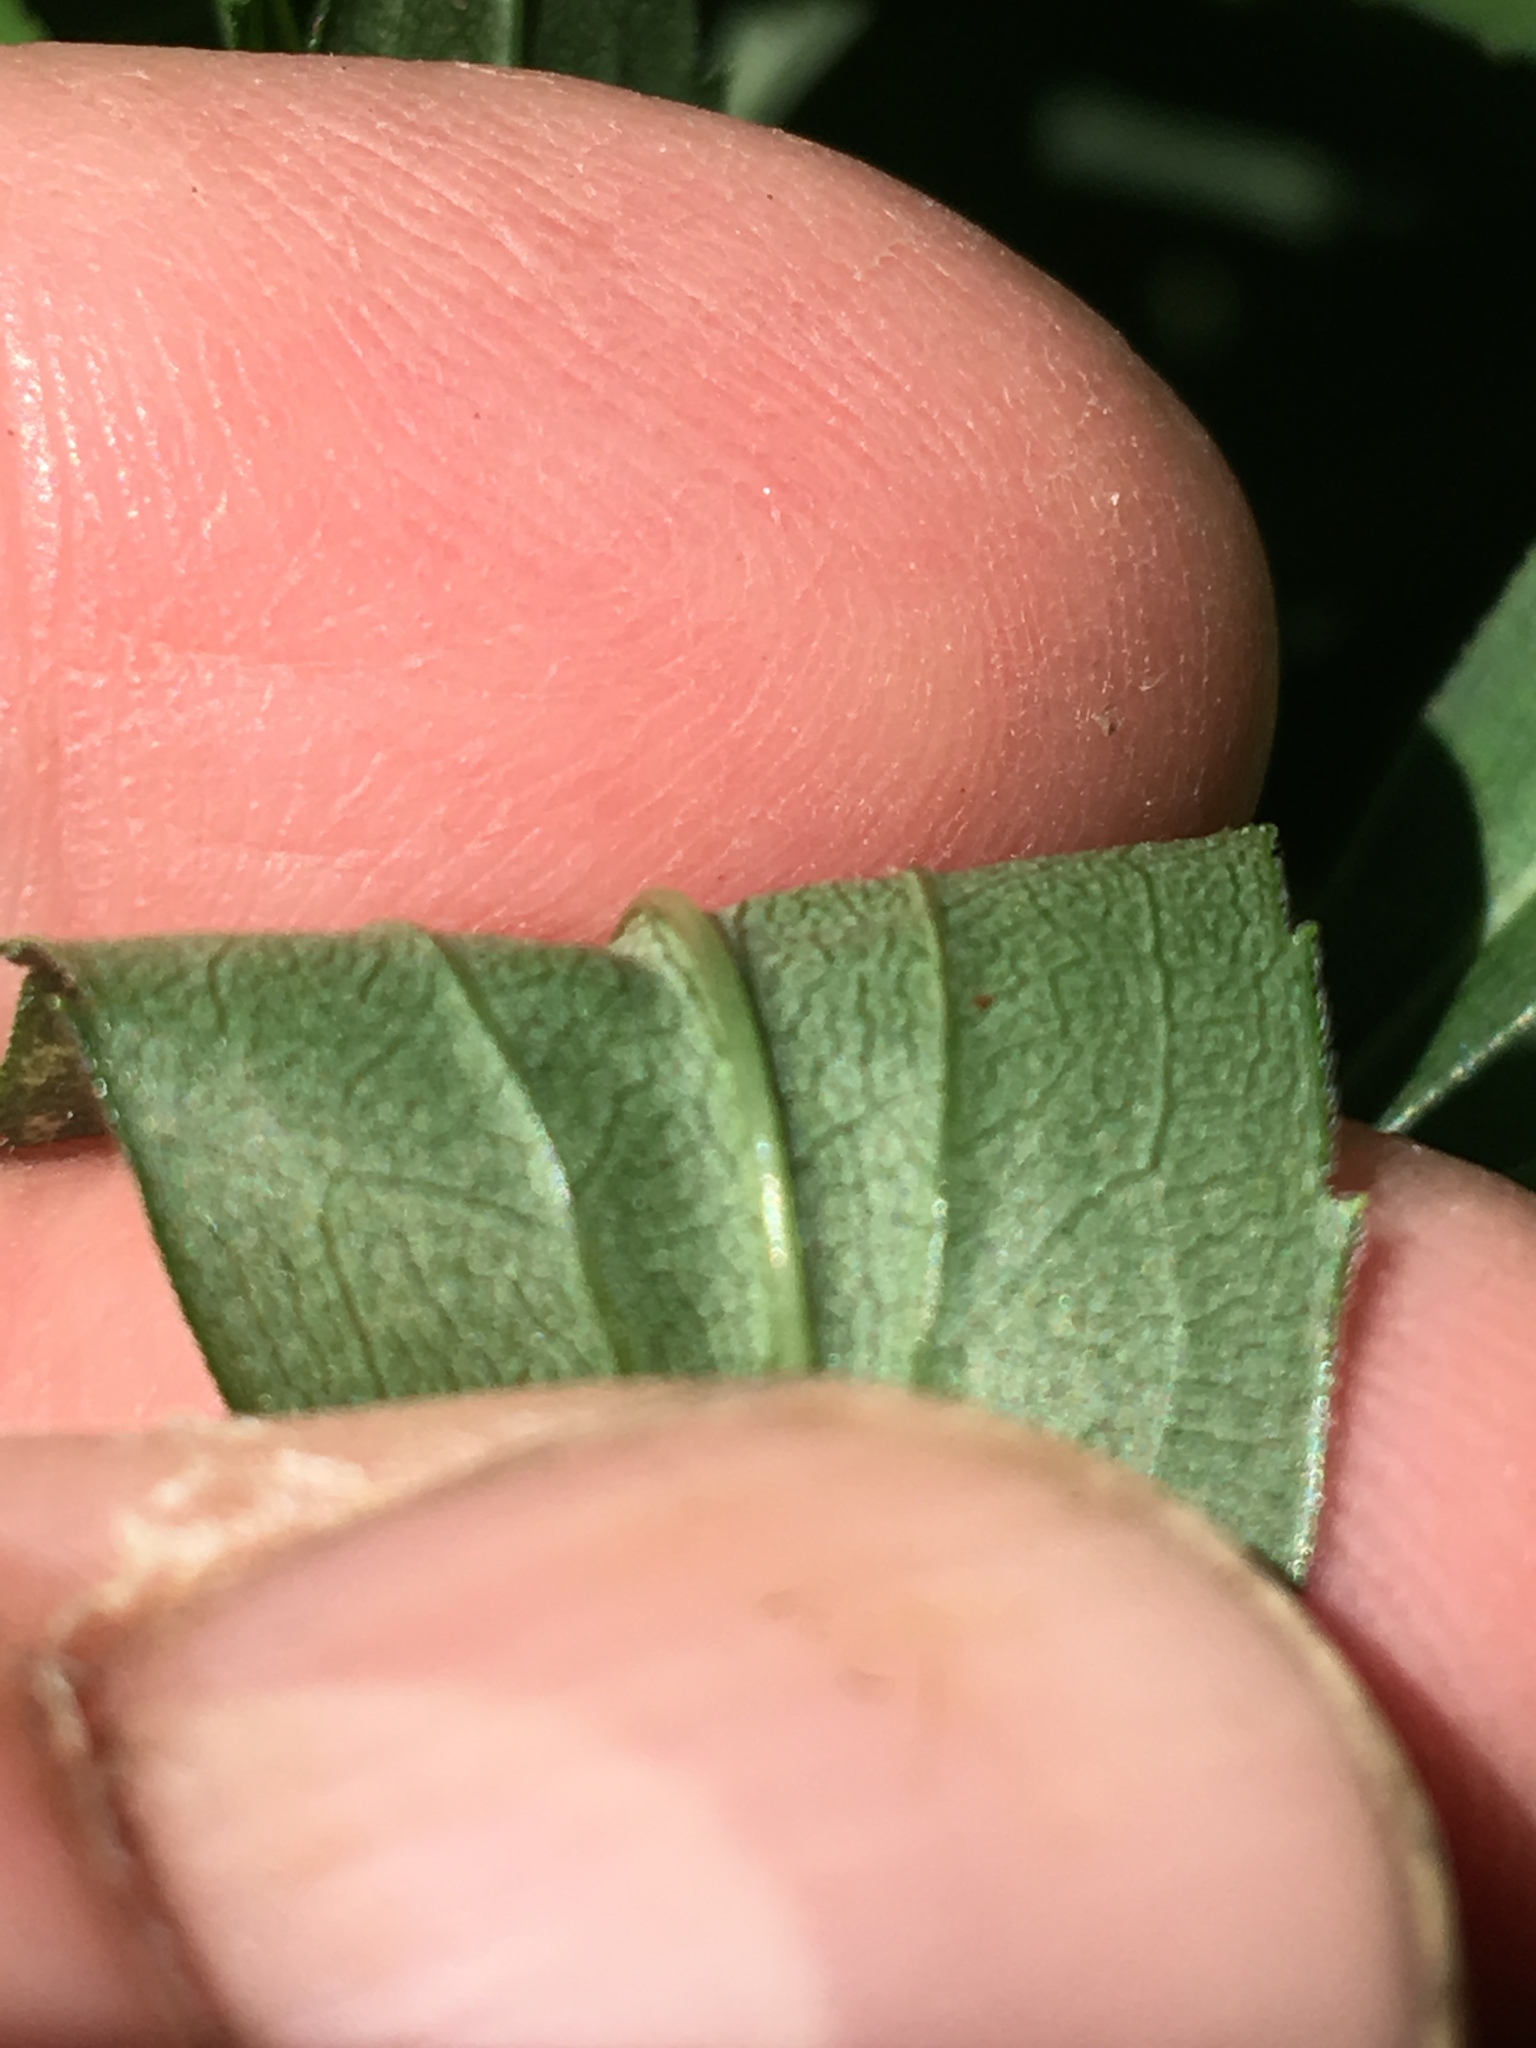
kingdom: Plantae
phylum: Tracheophyta
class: Magnoliopsida
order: Asterales
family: Asteraceae
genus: Solidago
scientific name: Solidago gigantea
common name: Giant goldenrod
